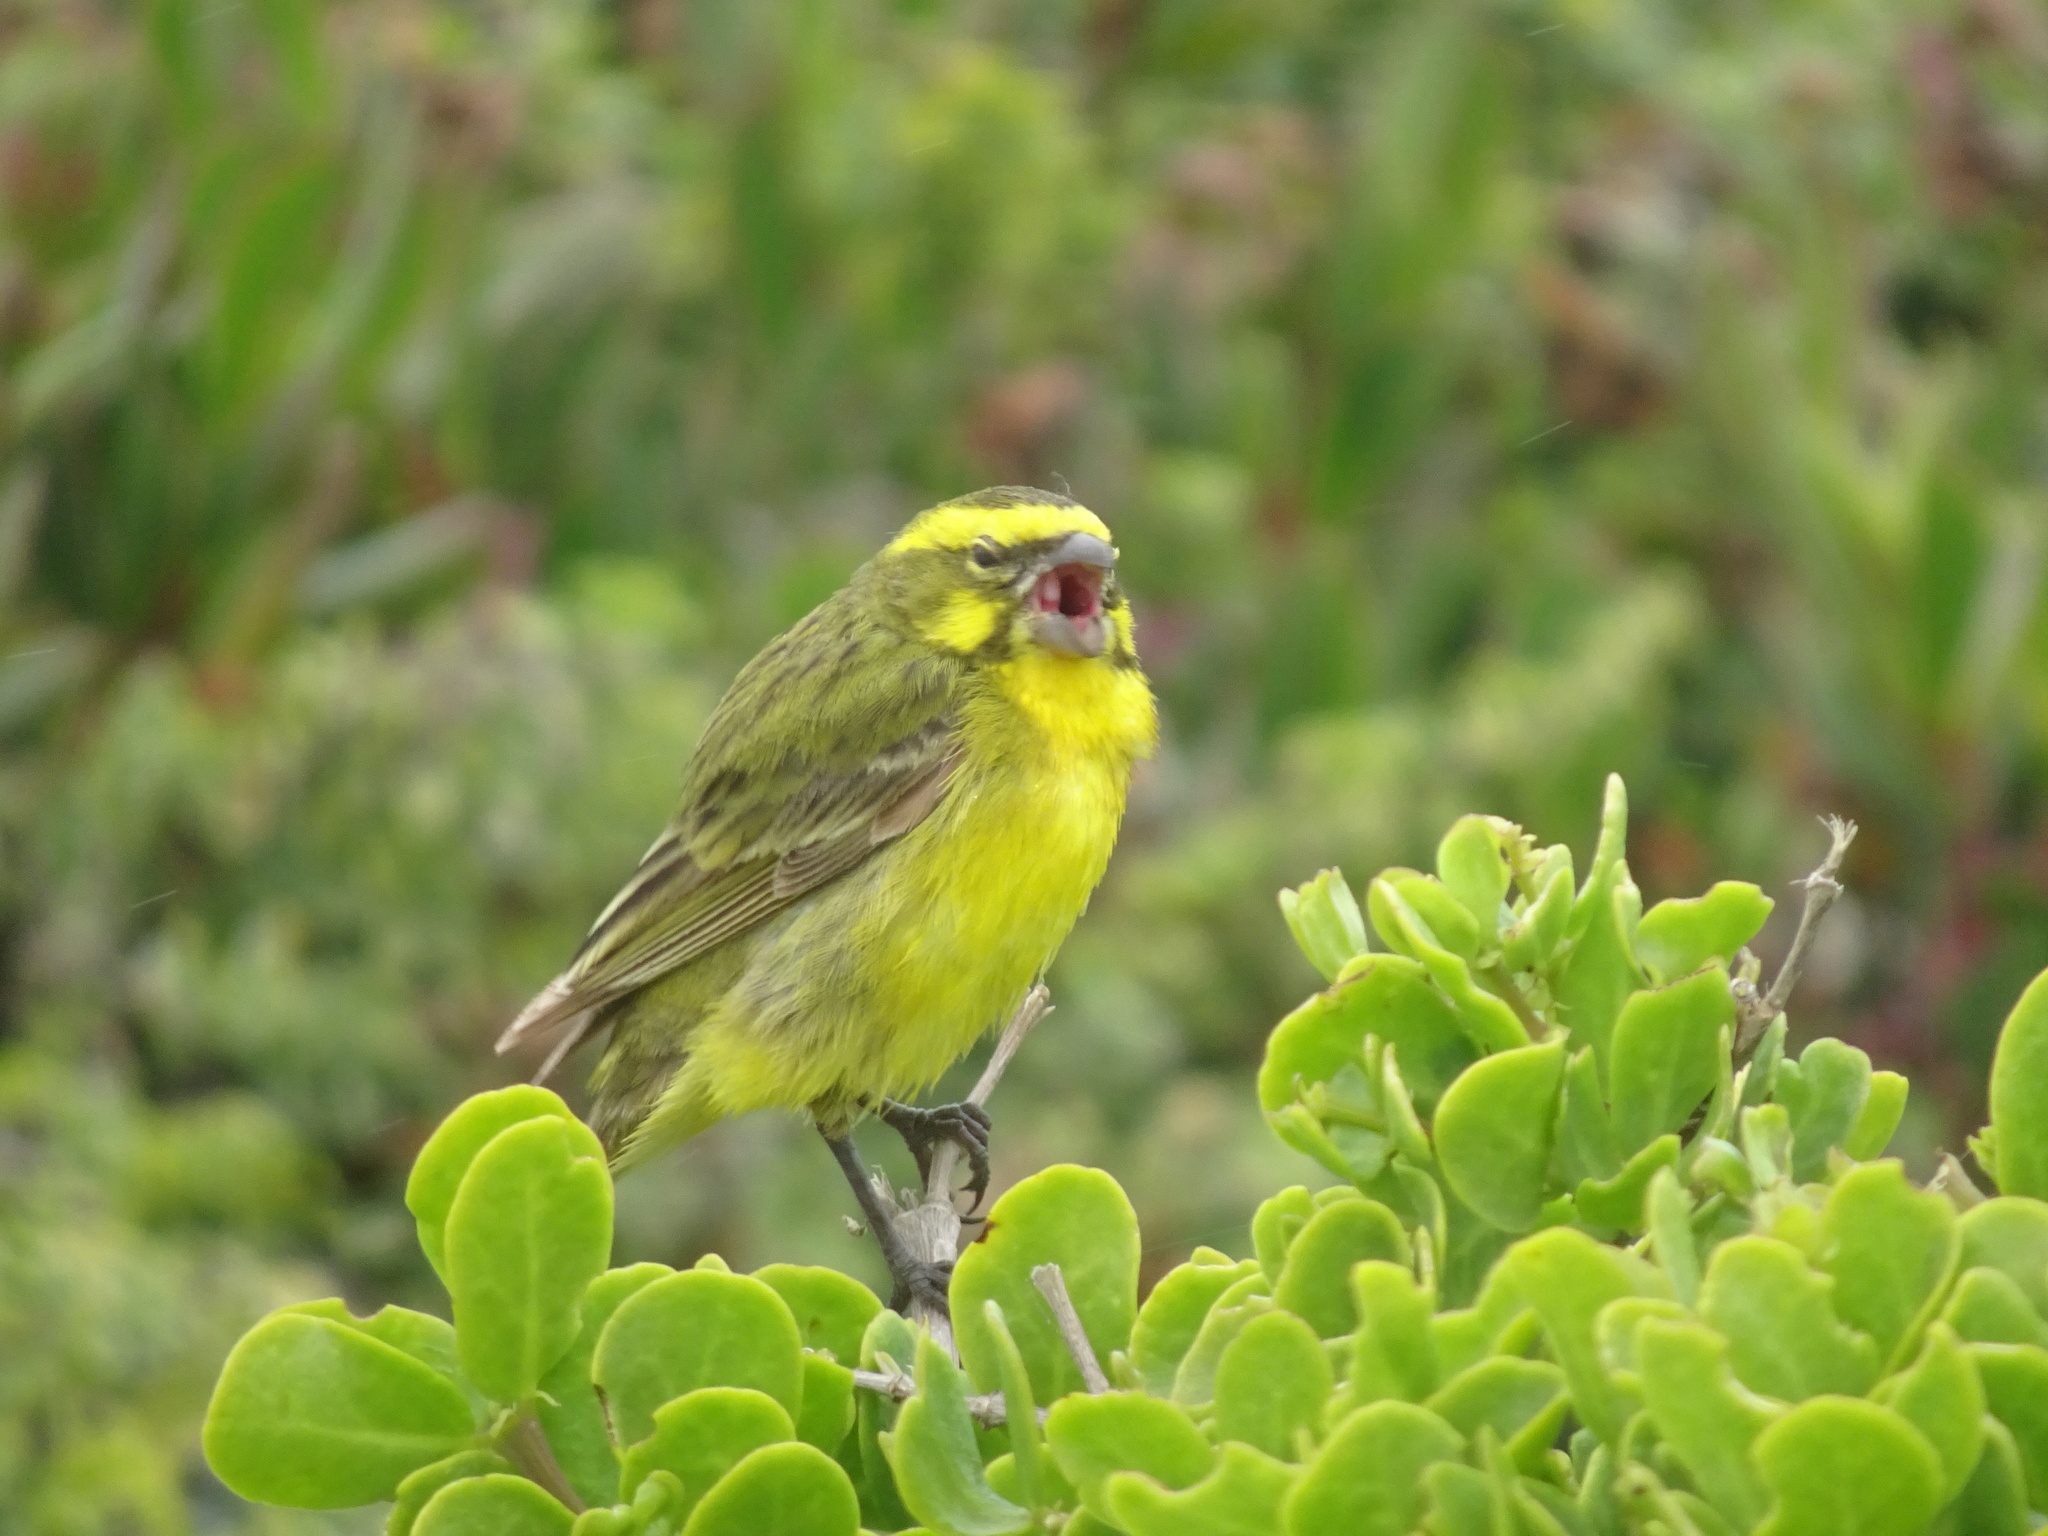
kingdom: Animalia
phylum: Chordata
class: Aves
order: Passeriformes
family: Fringillidae
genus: Crithagra
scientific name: Crithagra flaviventris
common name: Yellow canary
